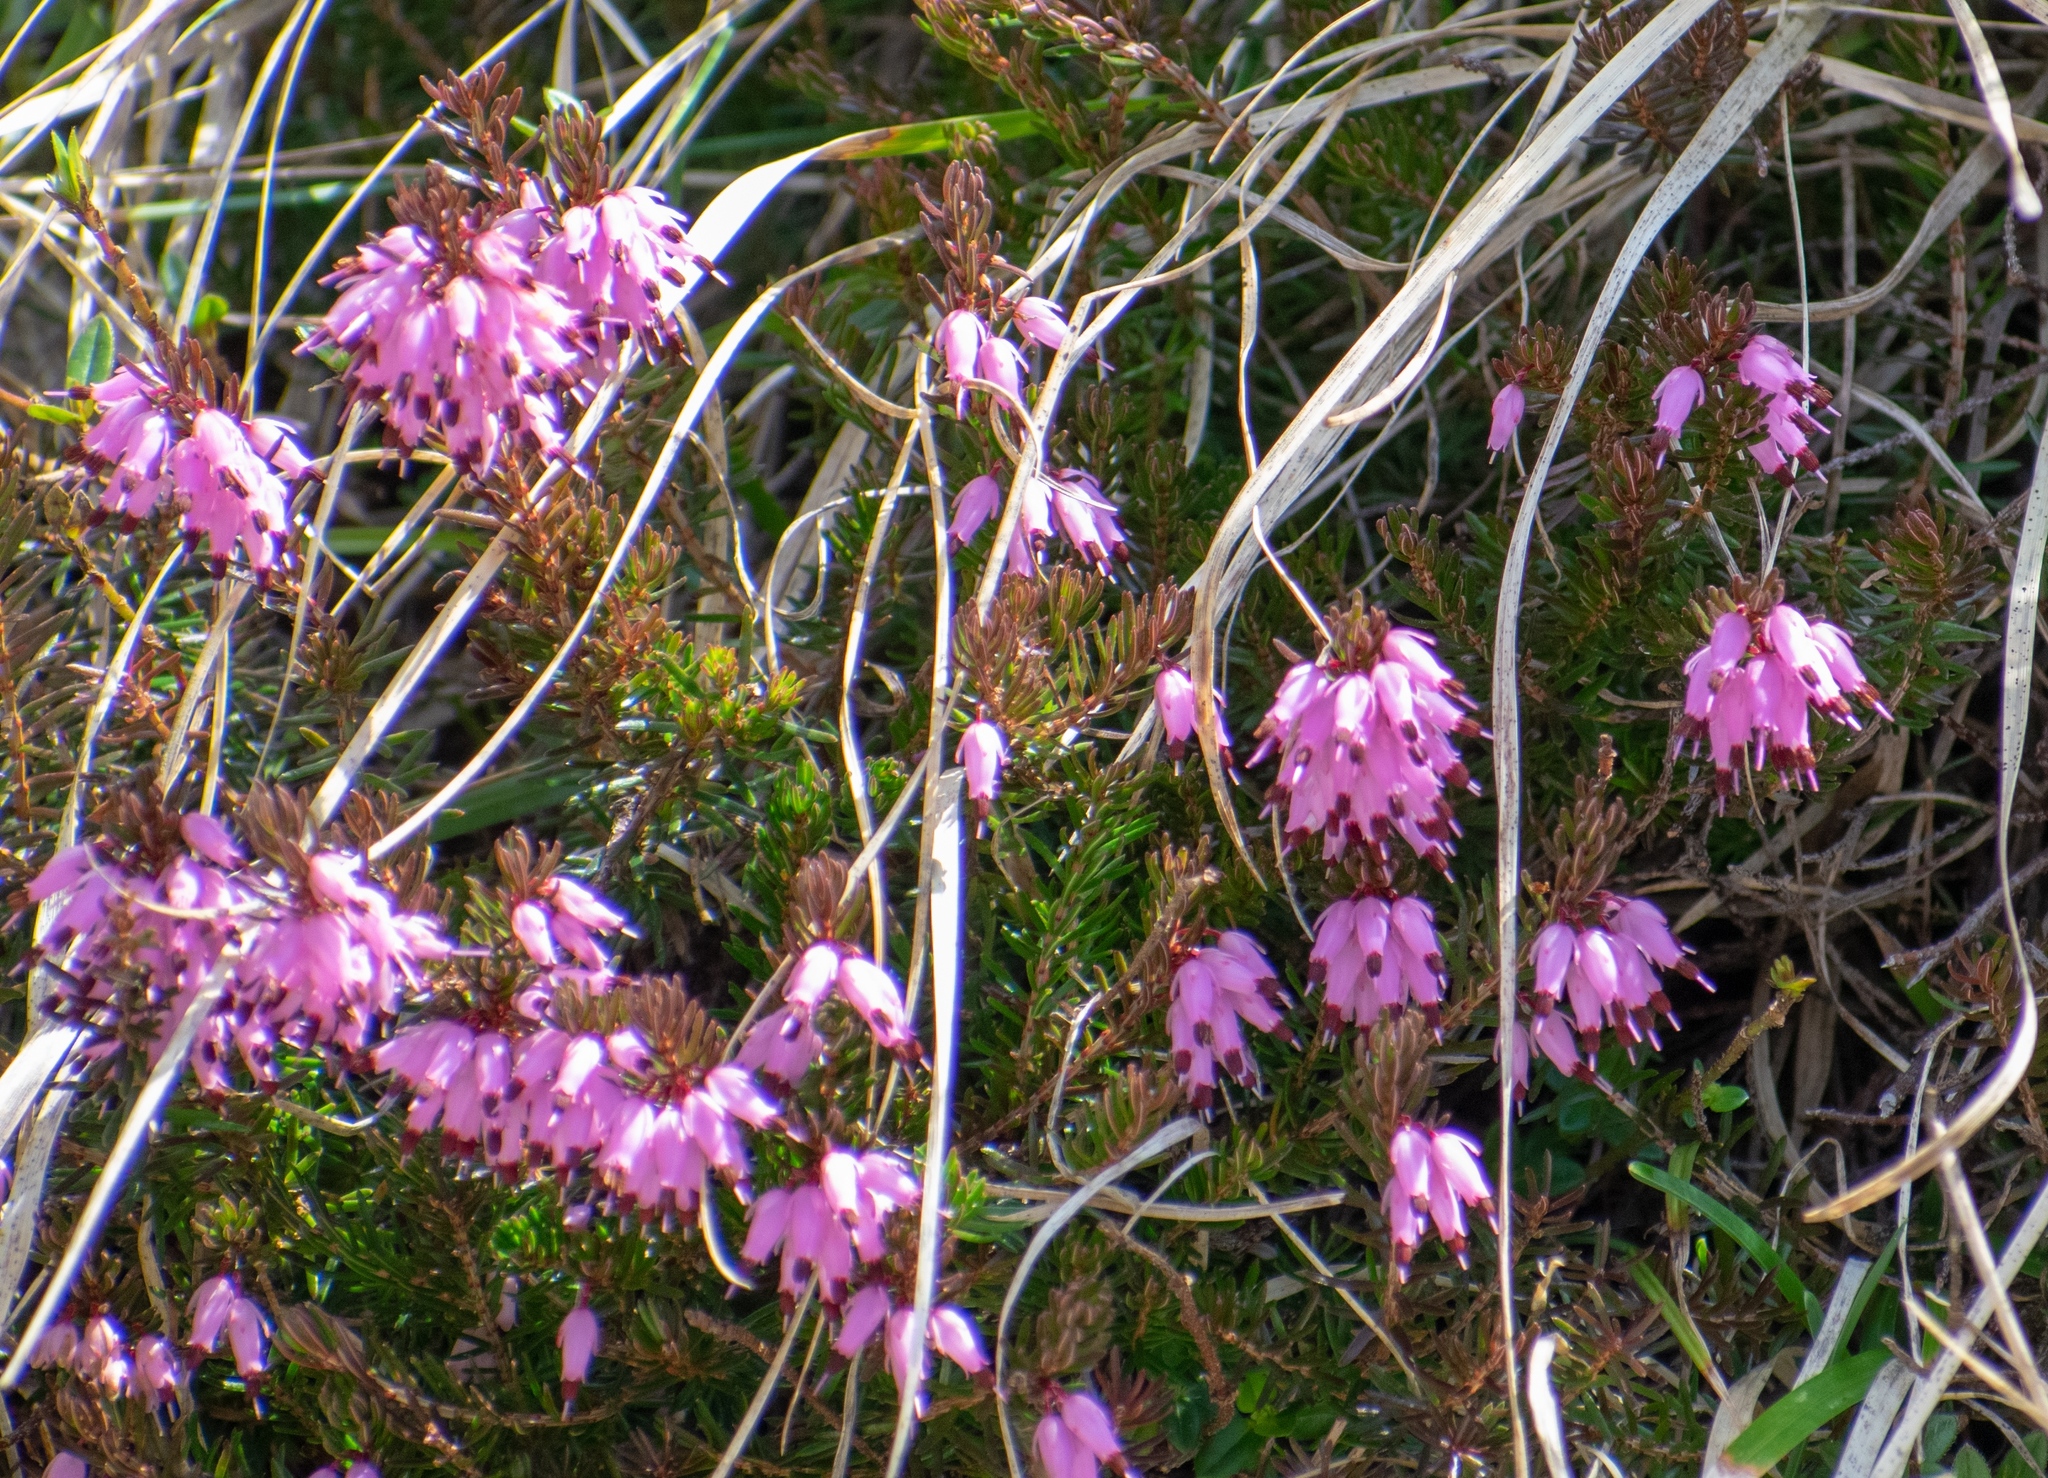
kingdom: Plantae
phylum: Tracheophyta
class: Magnoliopsida
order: Ericales
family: Ericaceae
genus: Erica
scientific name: Erica carnea
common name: Winter heath
